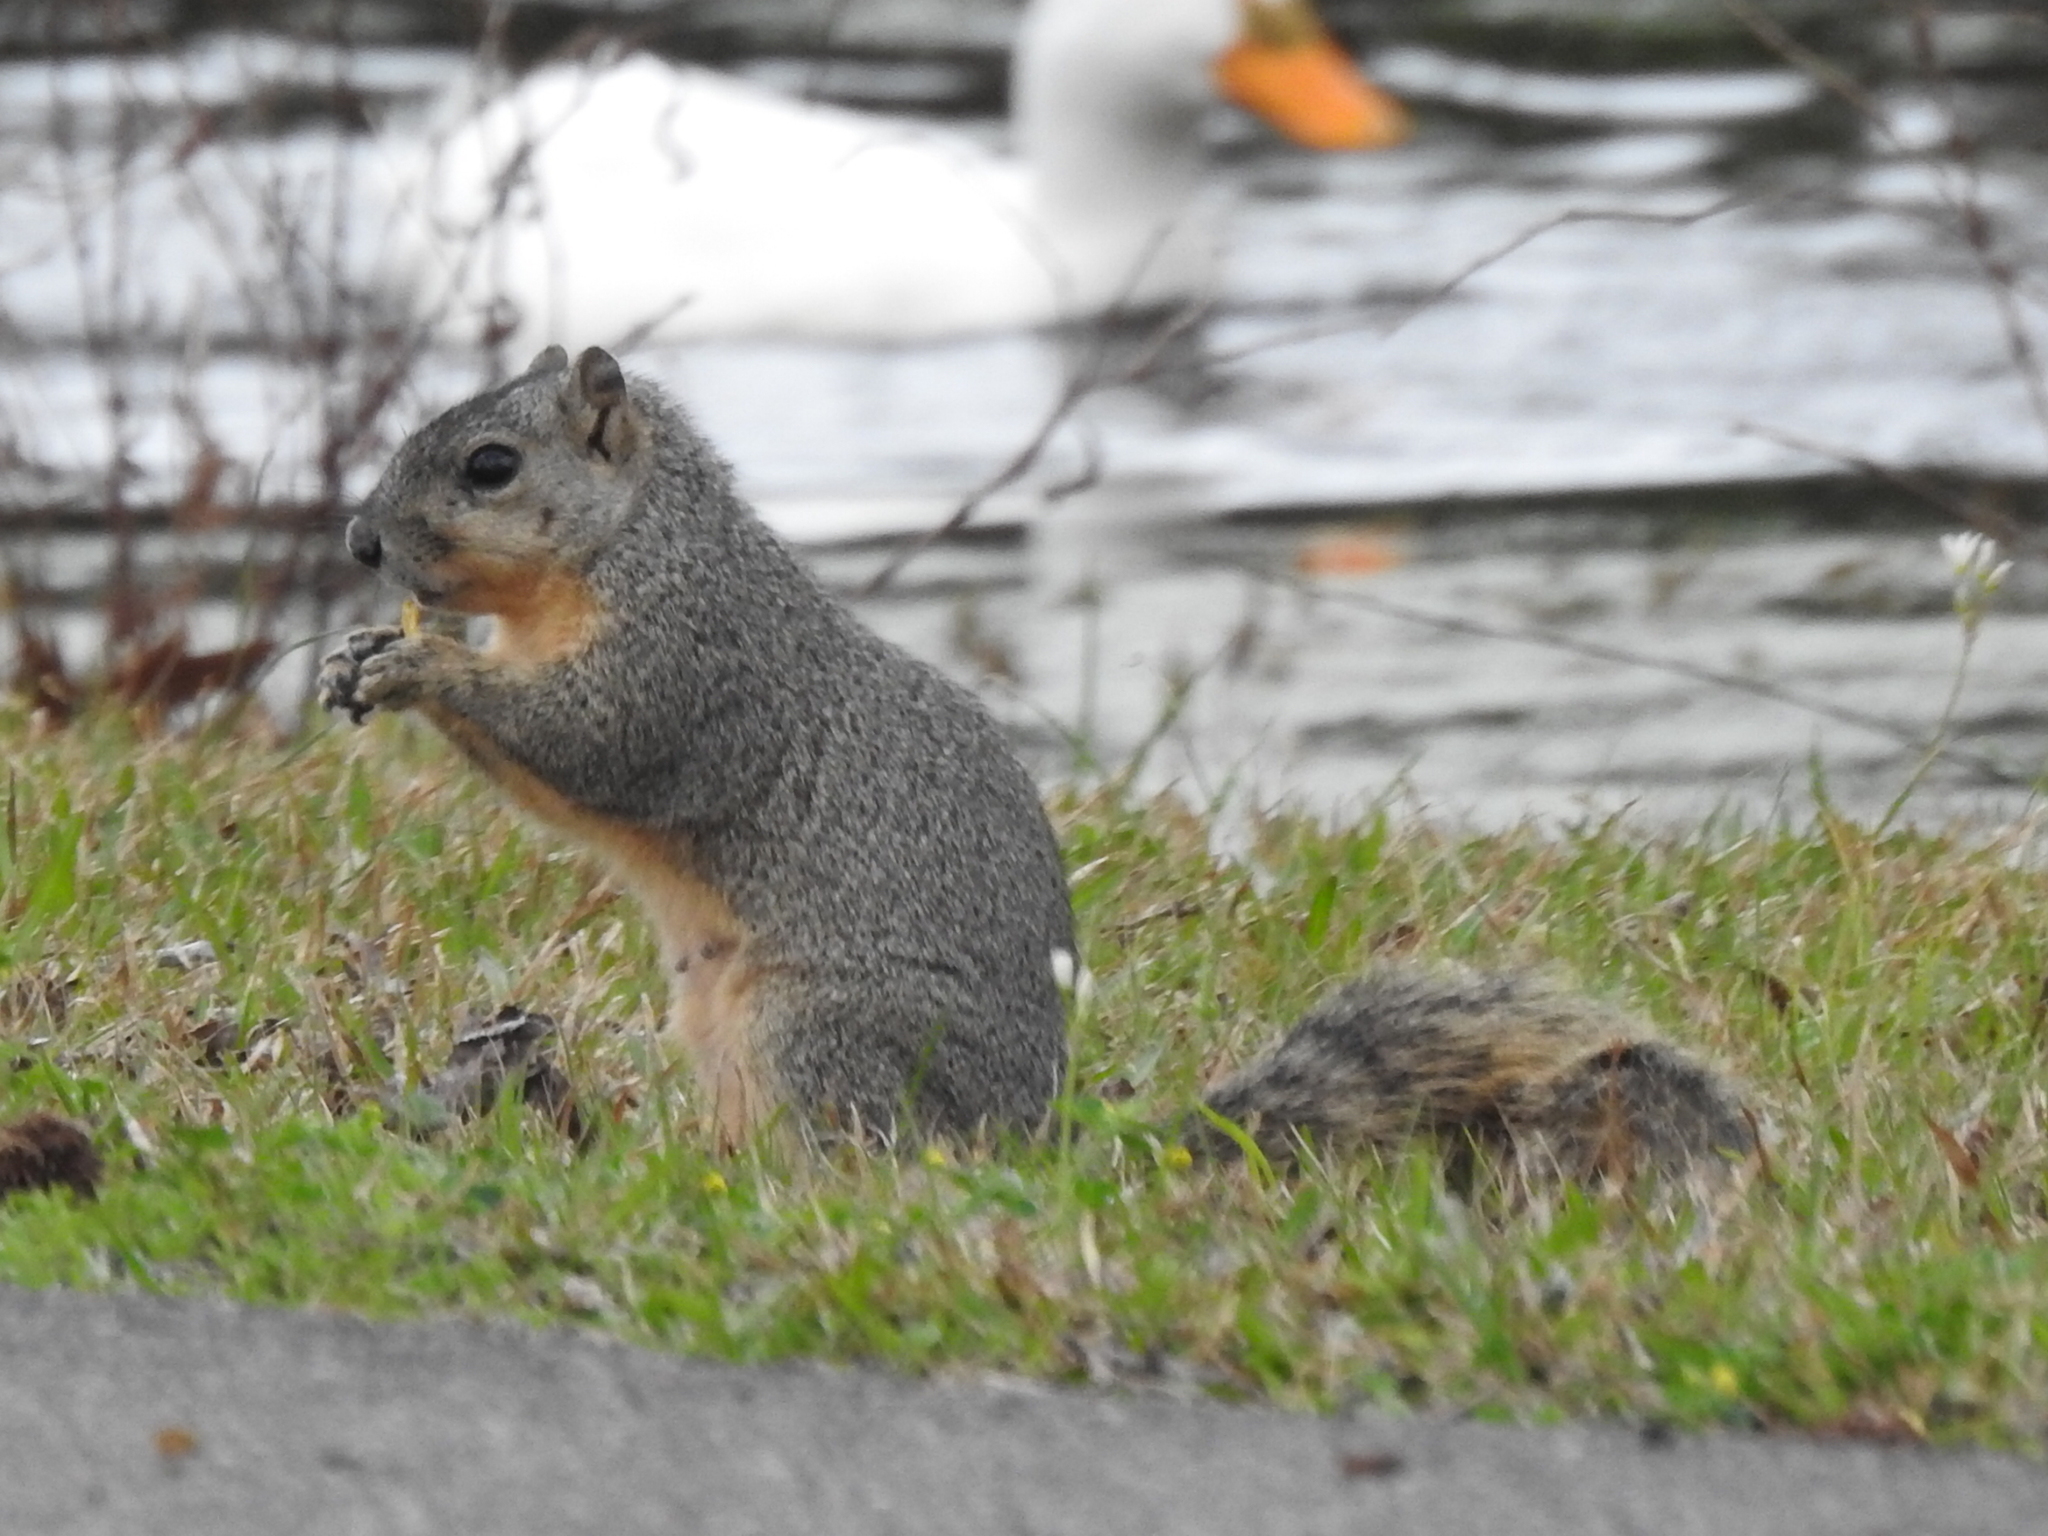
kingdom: Animalia
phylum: Chordata
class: Mammalia
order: Rodentia
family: Sciuridae
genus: Sciurus
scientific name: Sciurus niger
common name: Fox squirrel
